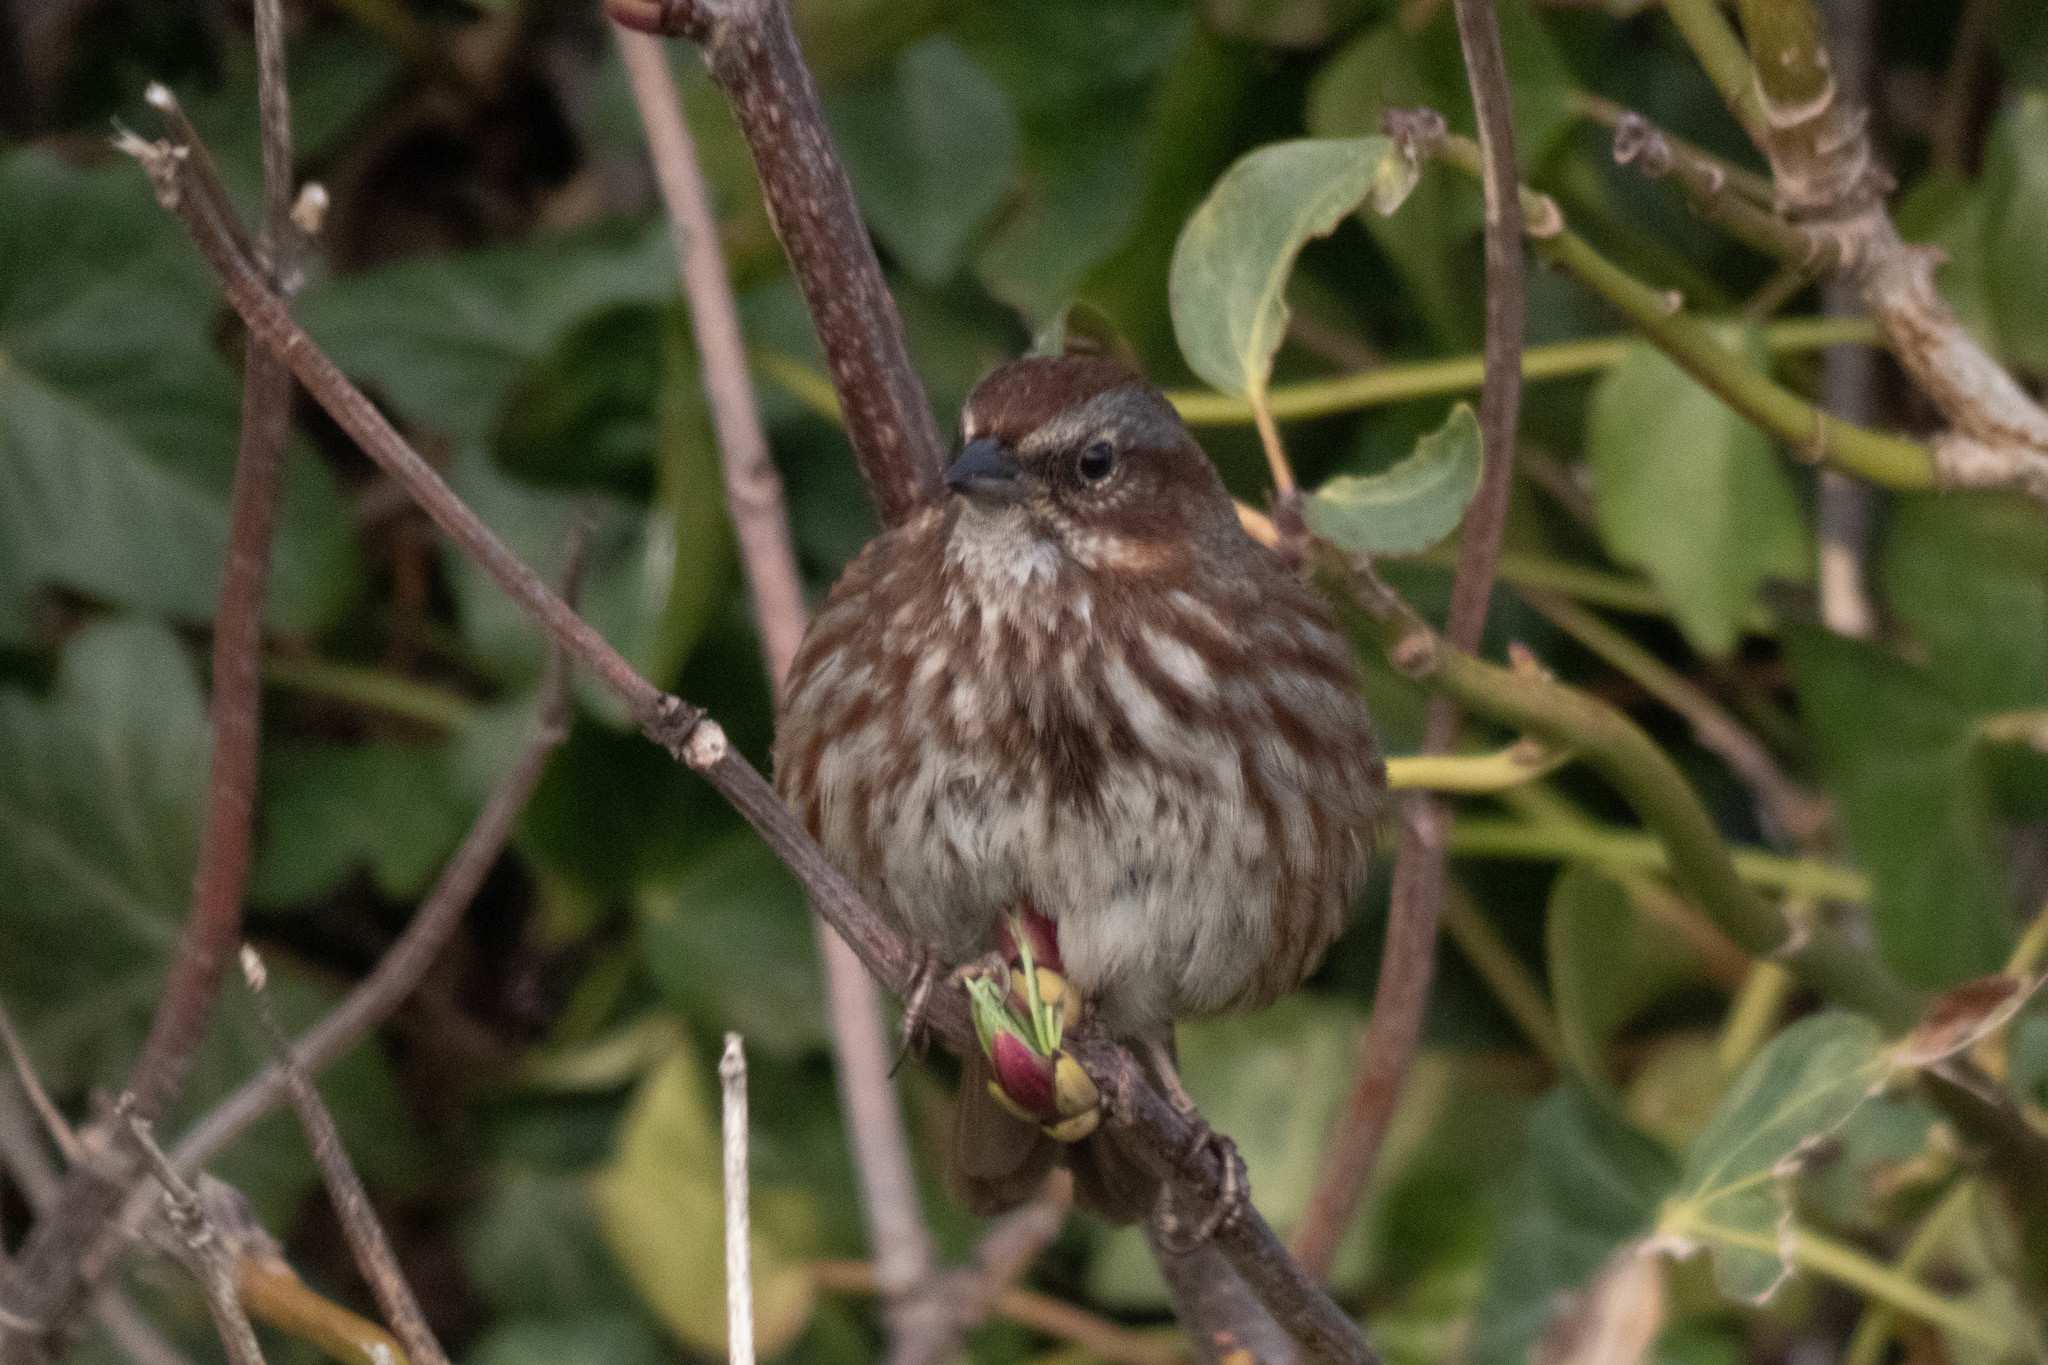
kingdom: Animalia
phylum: Chordata
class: Aves
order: Passeriformes
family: Passerellidae
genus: Melospiza
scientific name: Melospiza melodia
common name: Song sparrow
